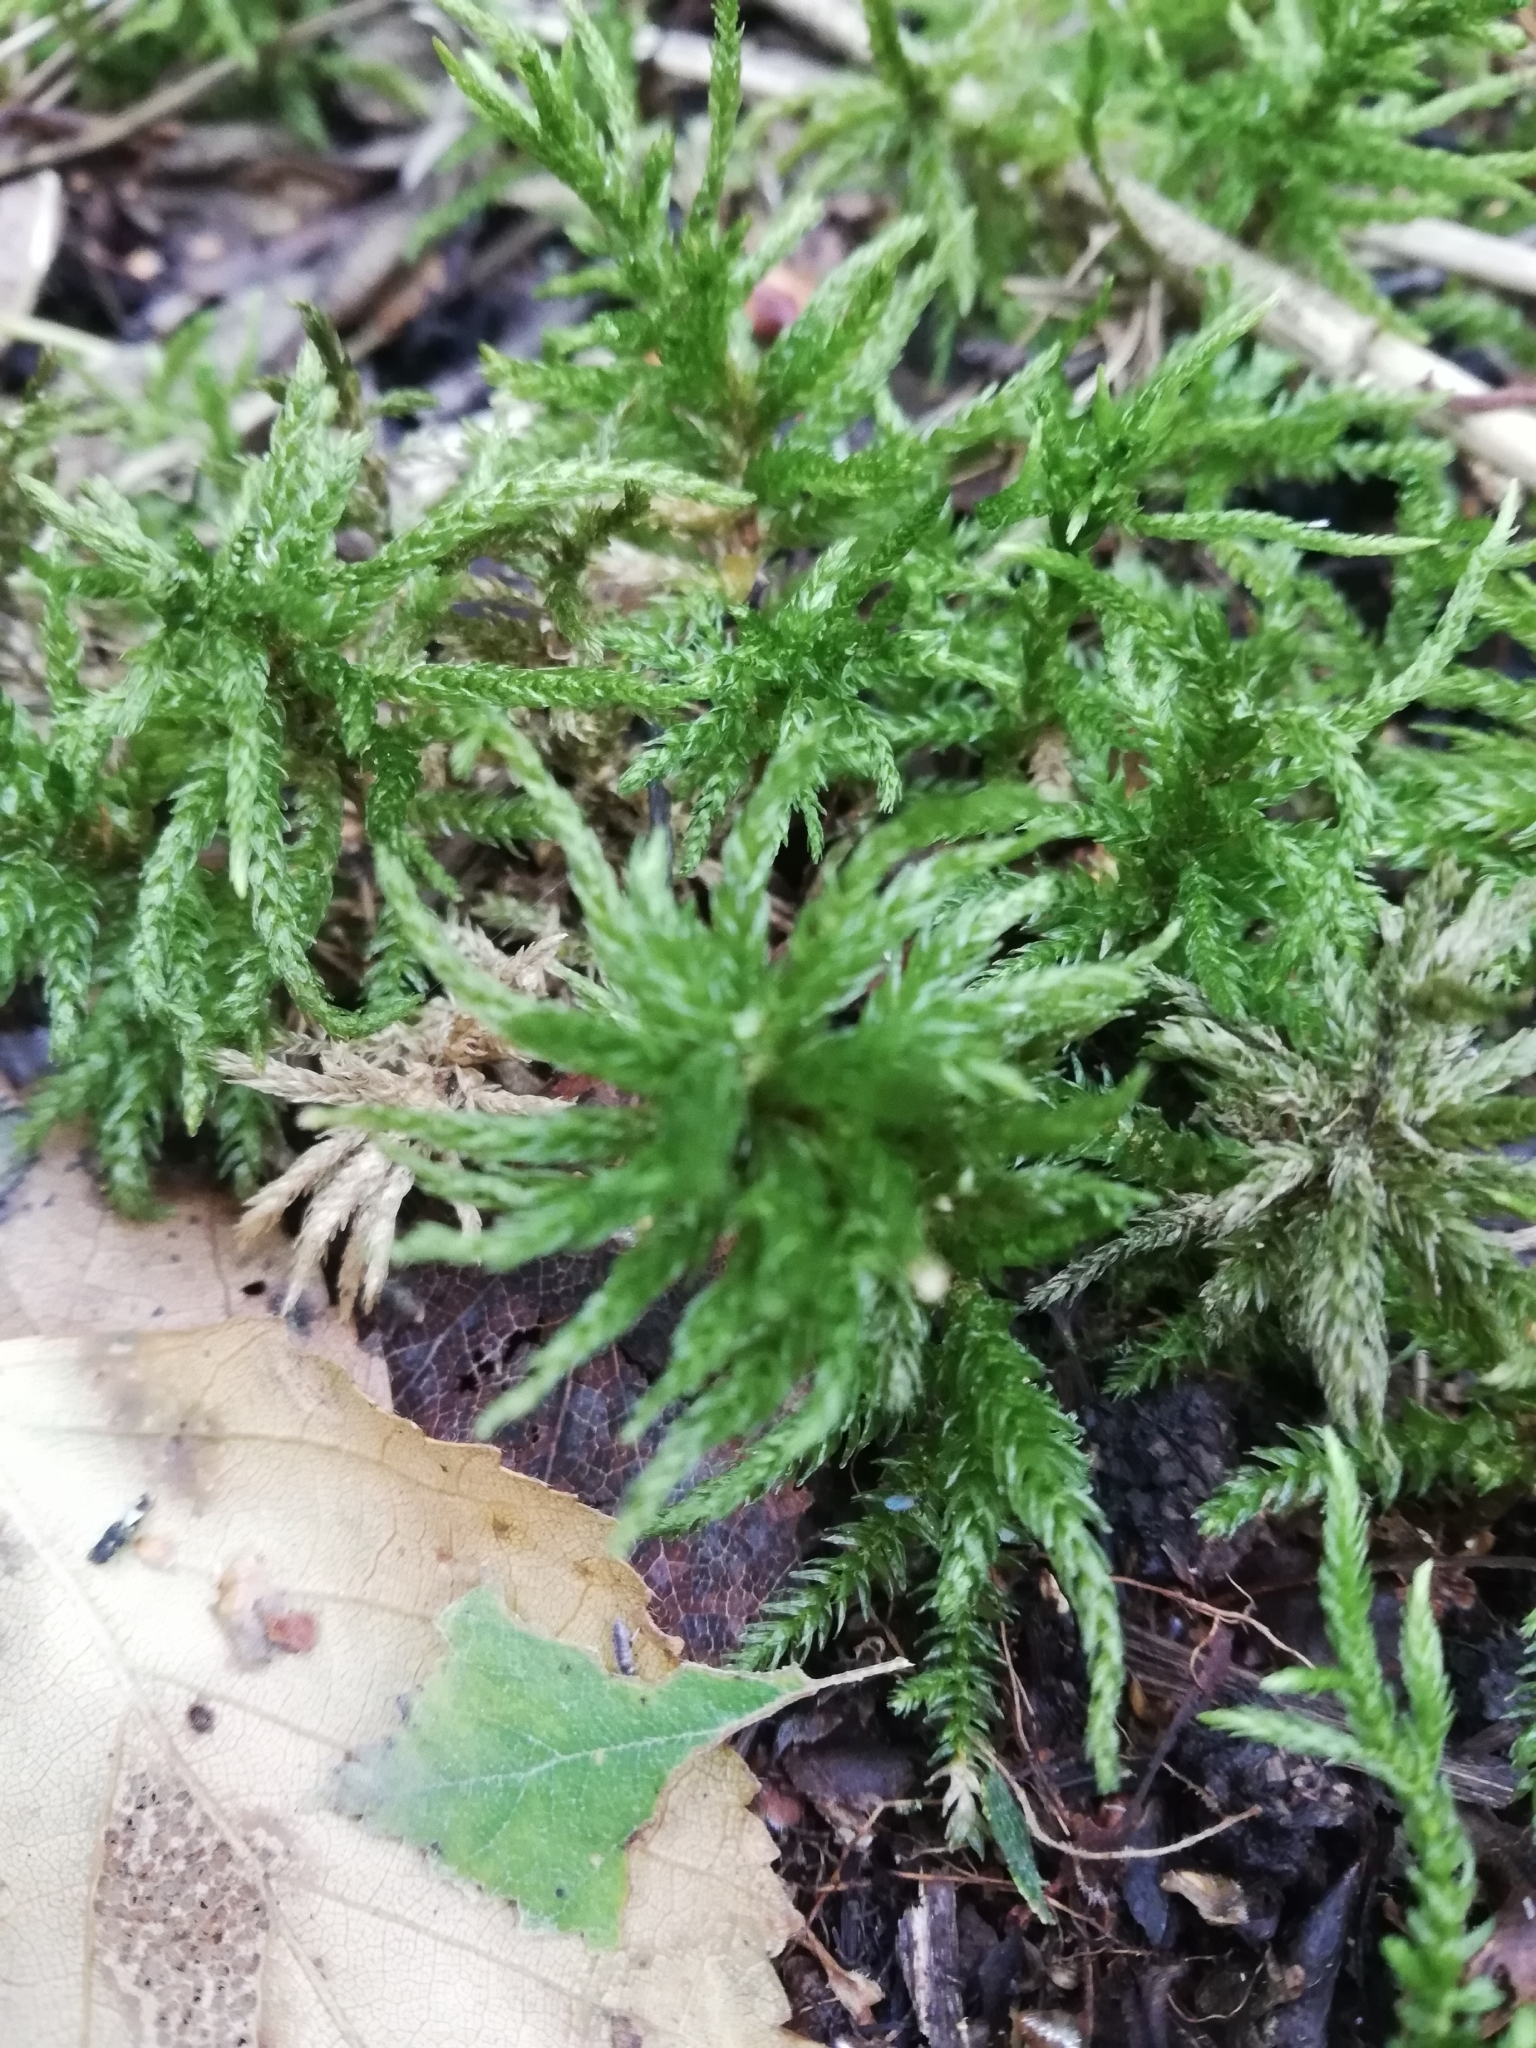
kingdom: Plantae
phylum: Bryophyta
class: Bryopsida
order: Hypnales
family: Climaciaceae
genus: Climacium
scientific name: Climacium dendroides
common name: Northern tree moss
